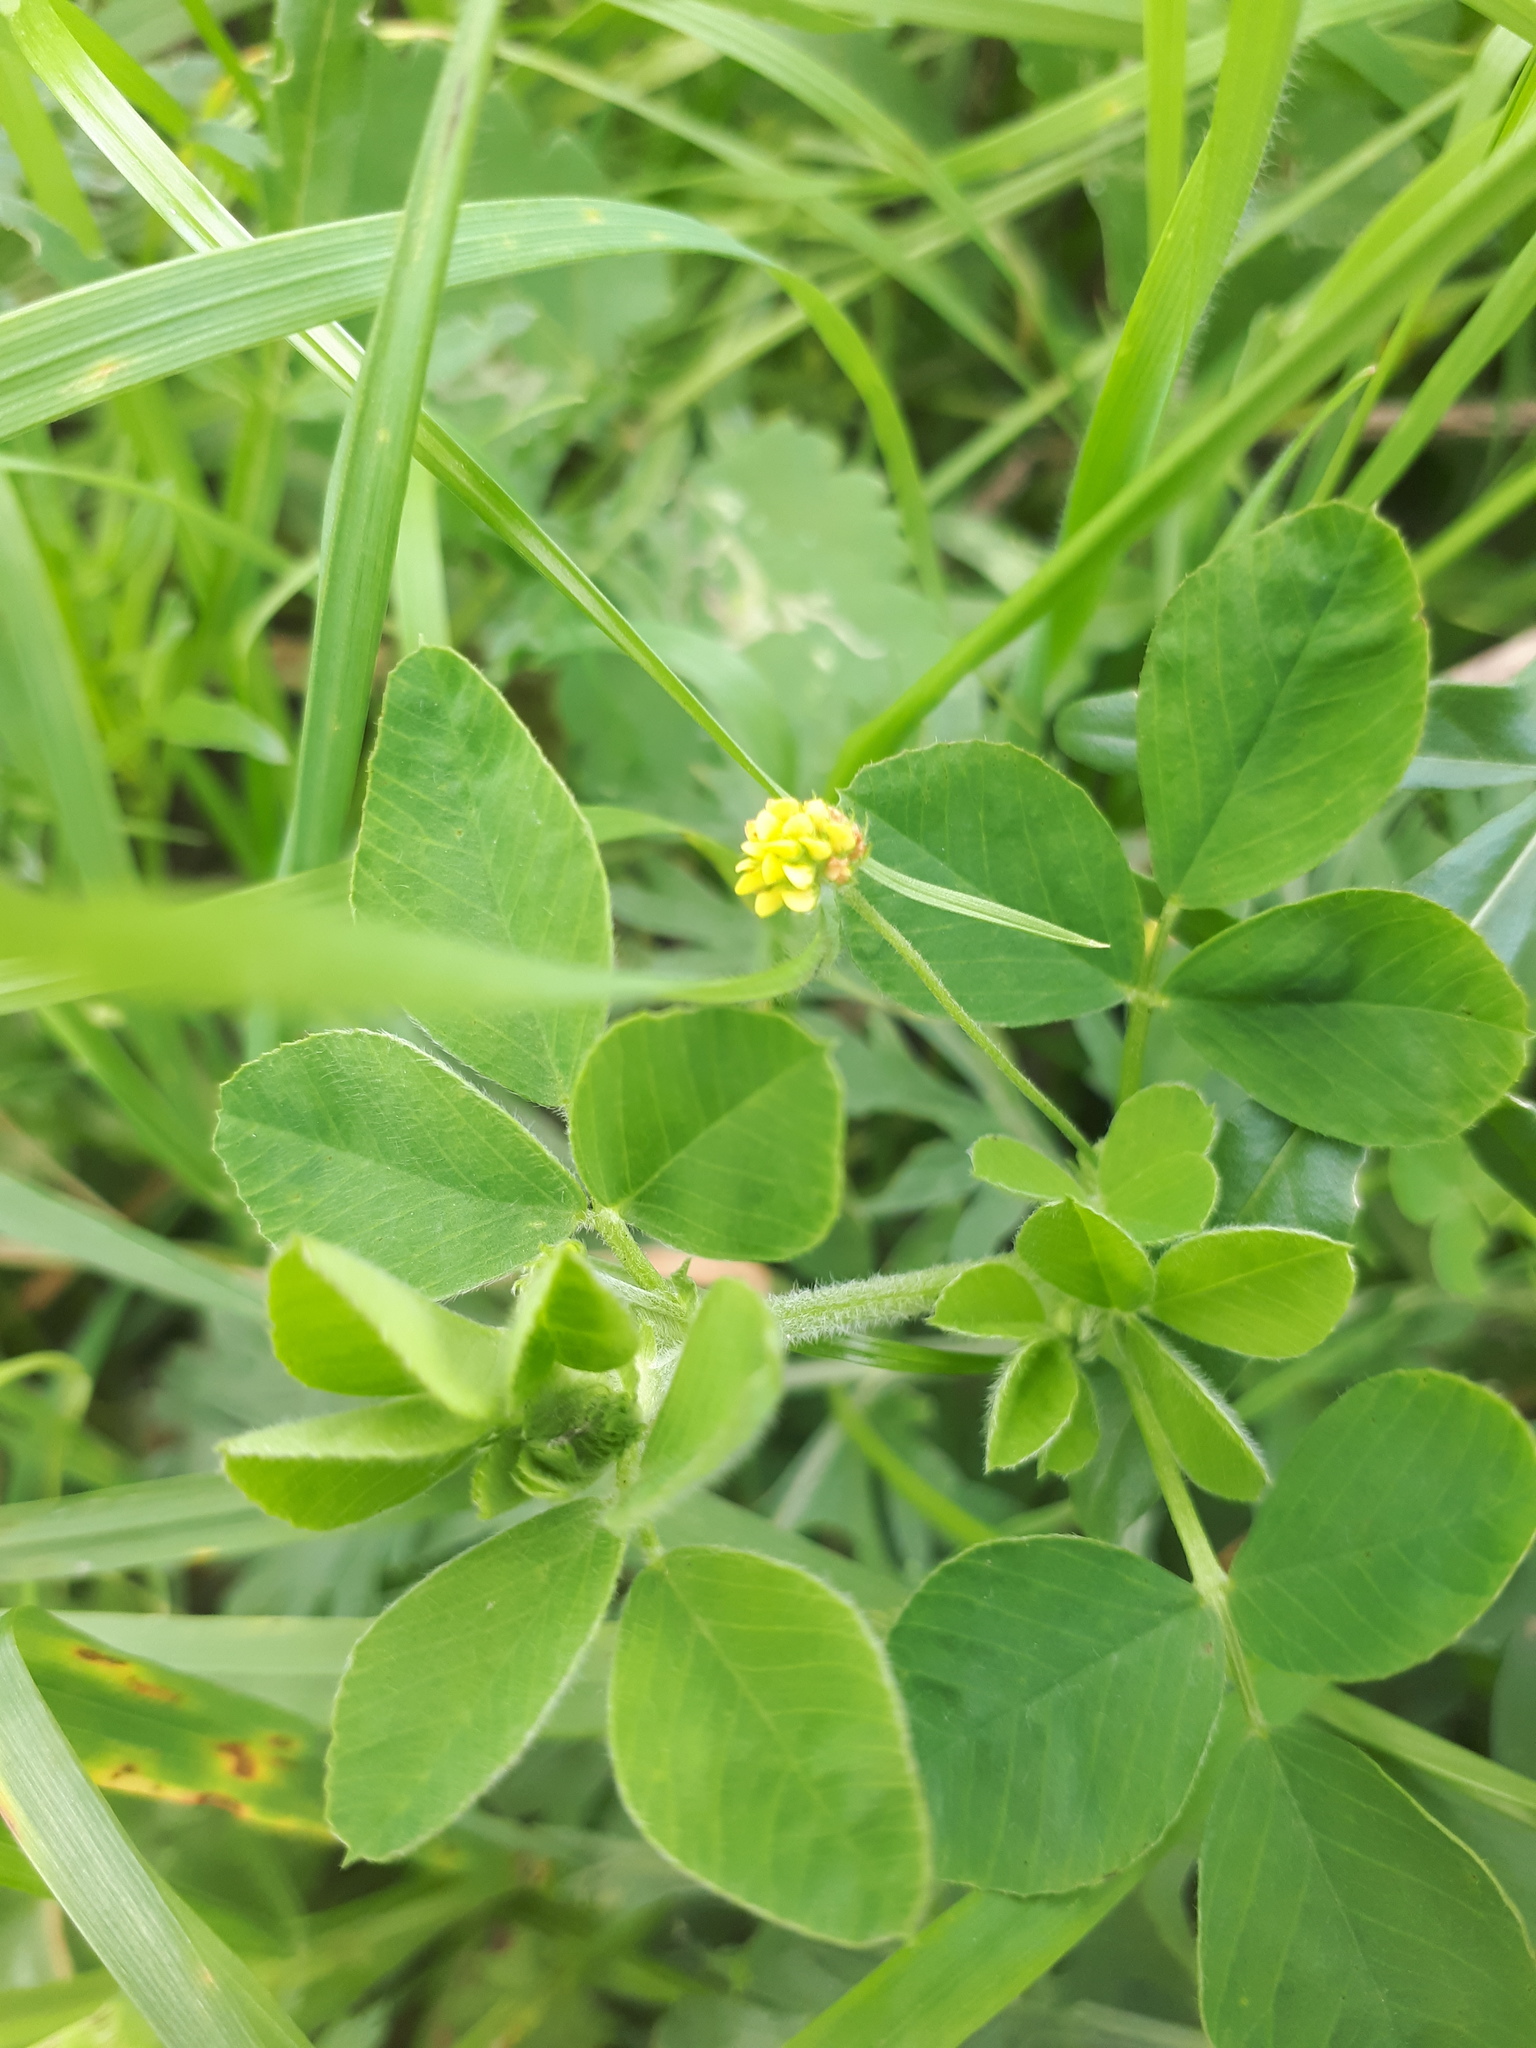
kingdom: Plantae
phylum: Tracheophyta
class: Magnoliopsida
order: Fabales
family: Fabaceae
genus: Medicago
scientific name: Medicago lupulina
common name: Black medick
